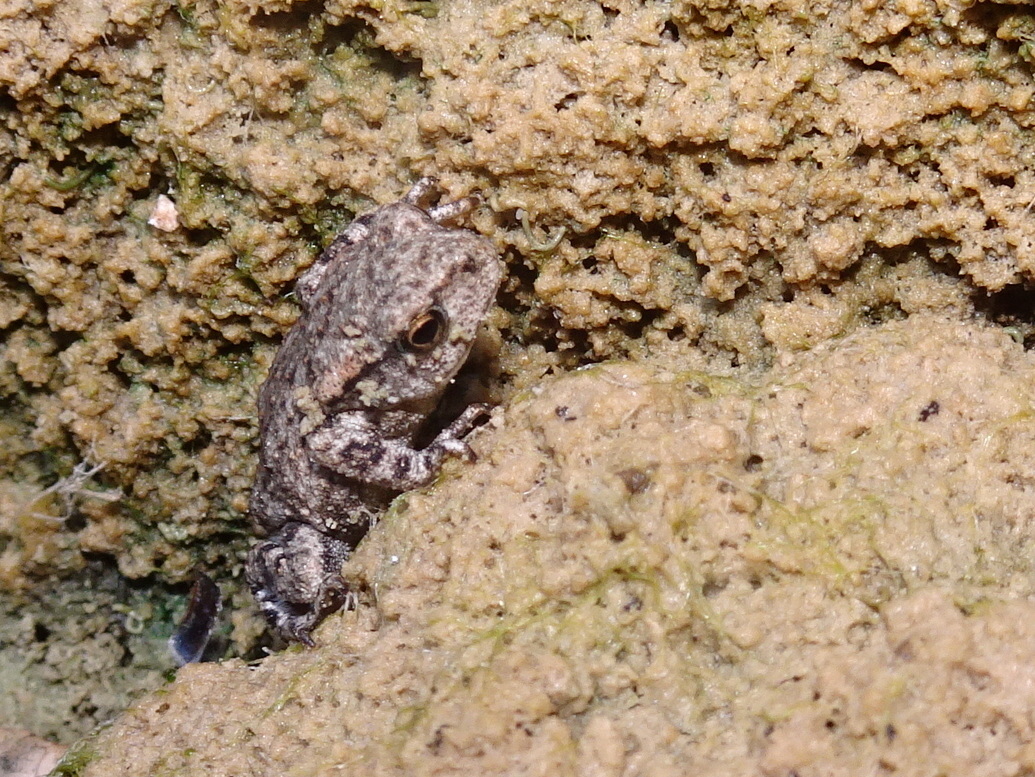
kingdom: Animalia
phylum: Chordata
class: Amphibia
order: Anura
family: Bufonidae
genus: Bufo
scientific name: Bufo spinosus
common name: Western common toad
